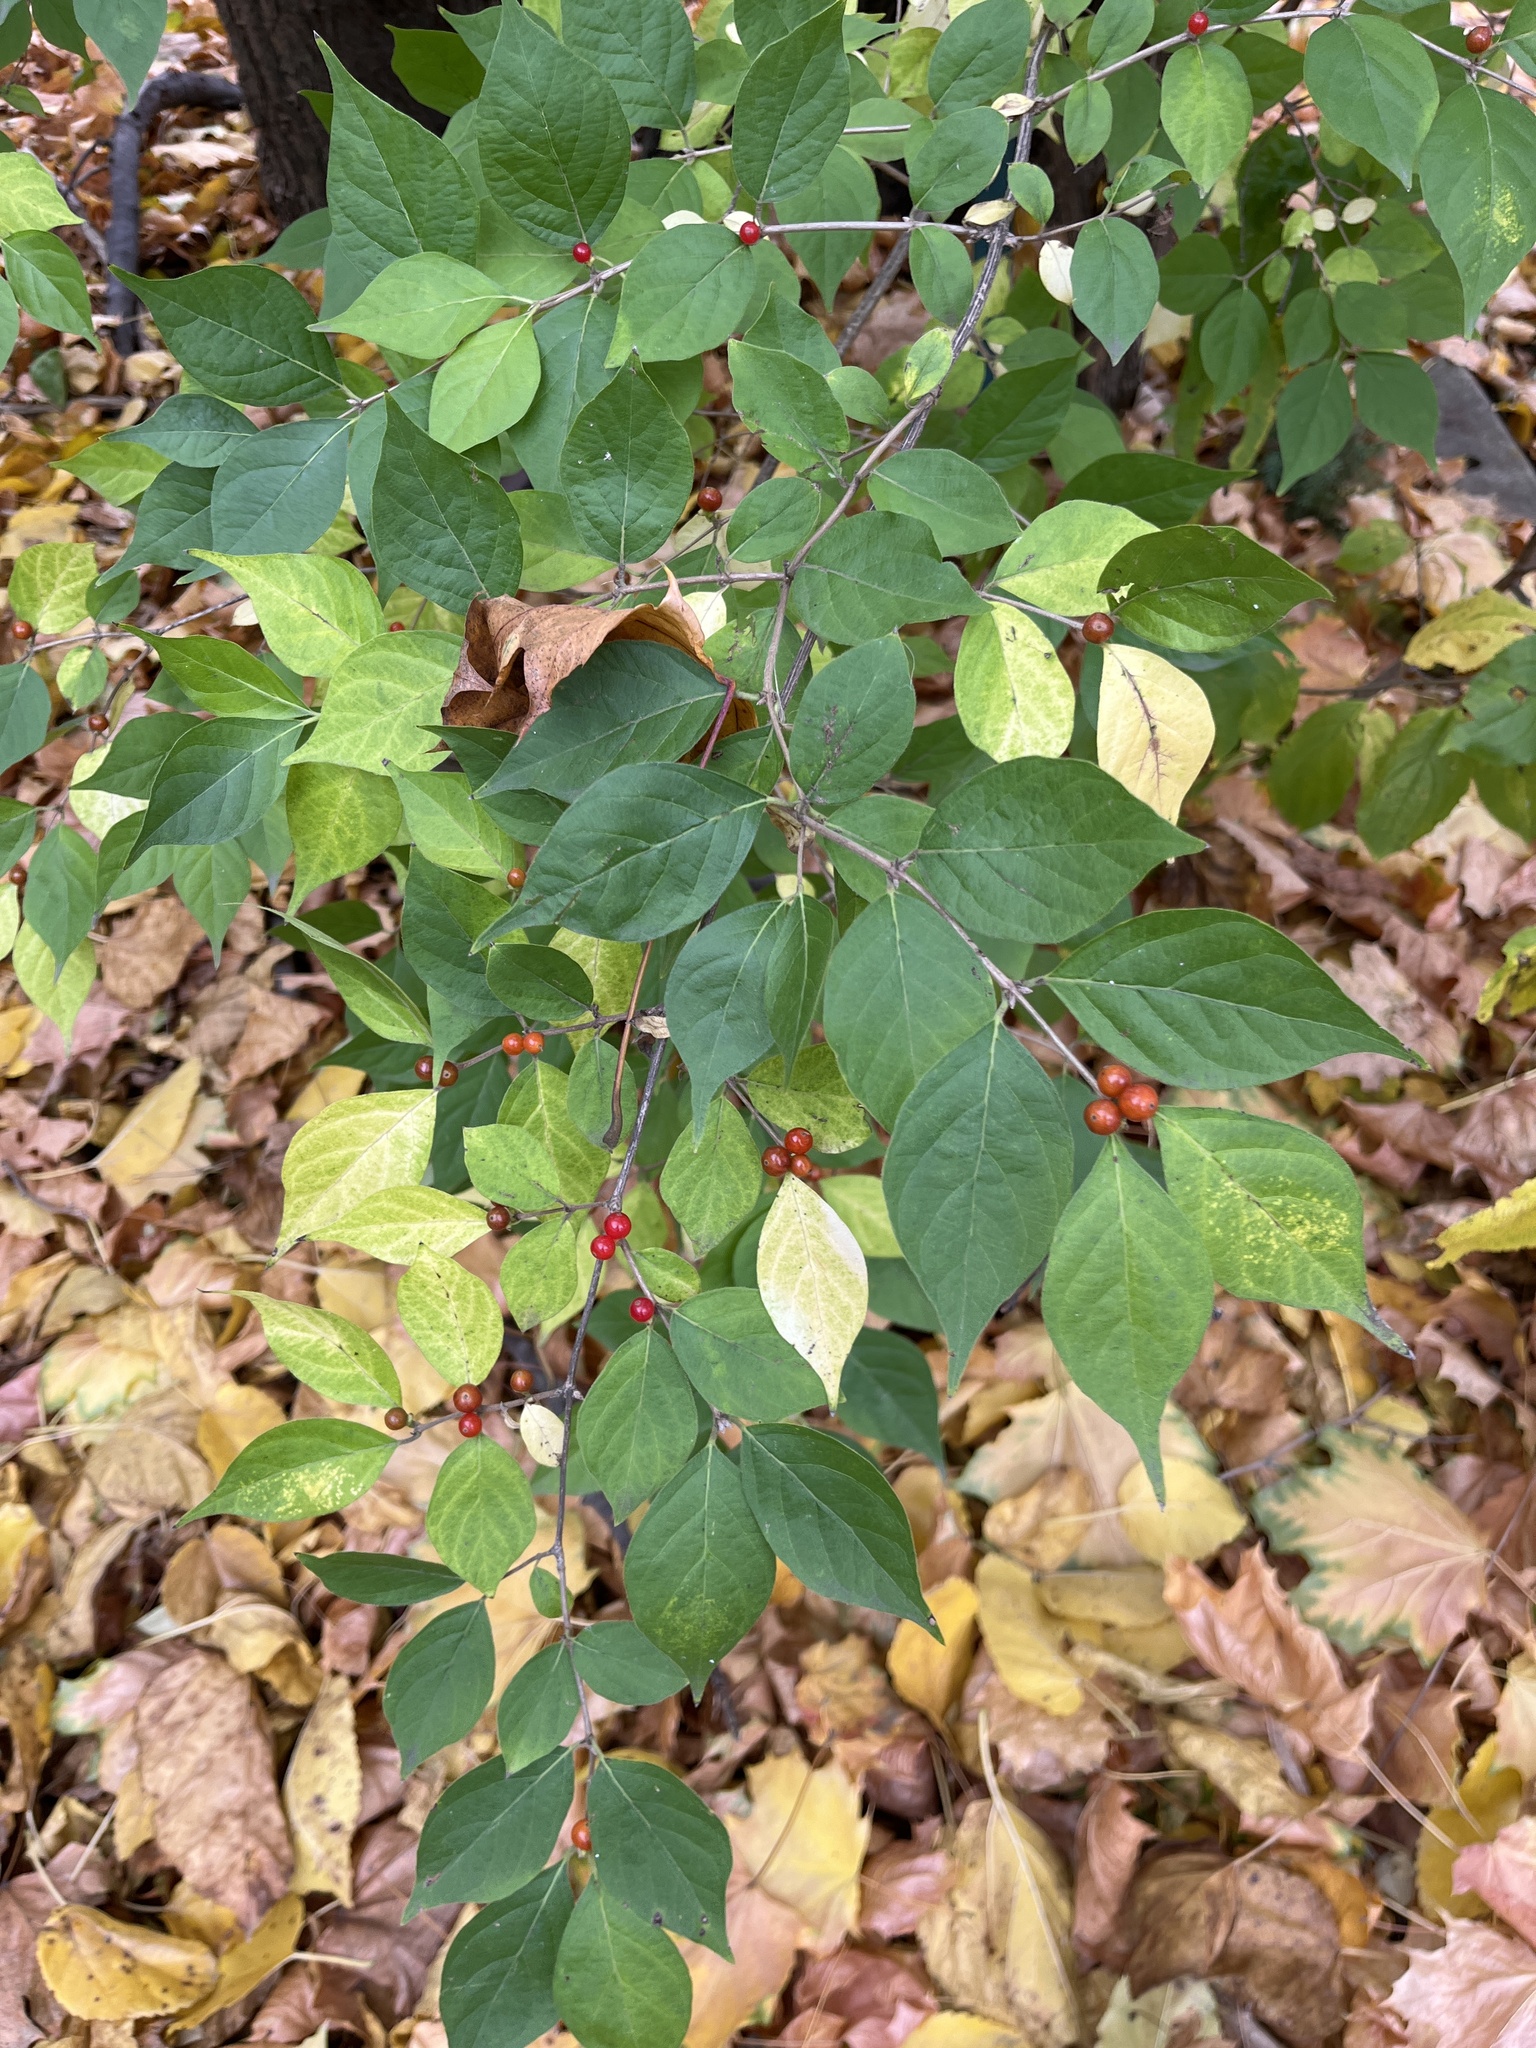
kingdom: Plantae
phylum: Tracheophyta
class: Magnoliopsida
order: Dipsacales
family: Caprifoliaceae
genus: Lonicera
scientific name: Lonicera maackii
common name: Amur honeysuckle
